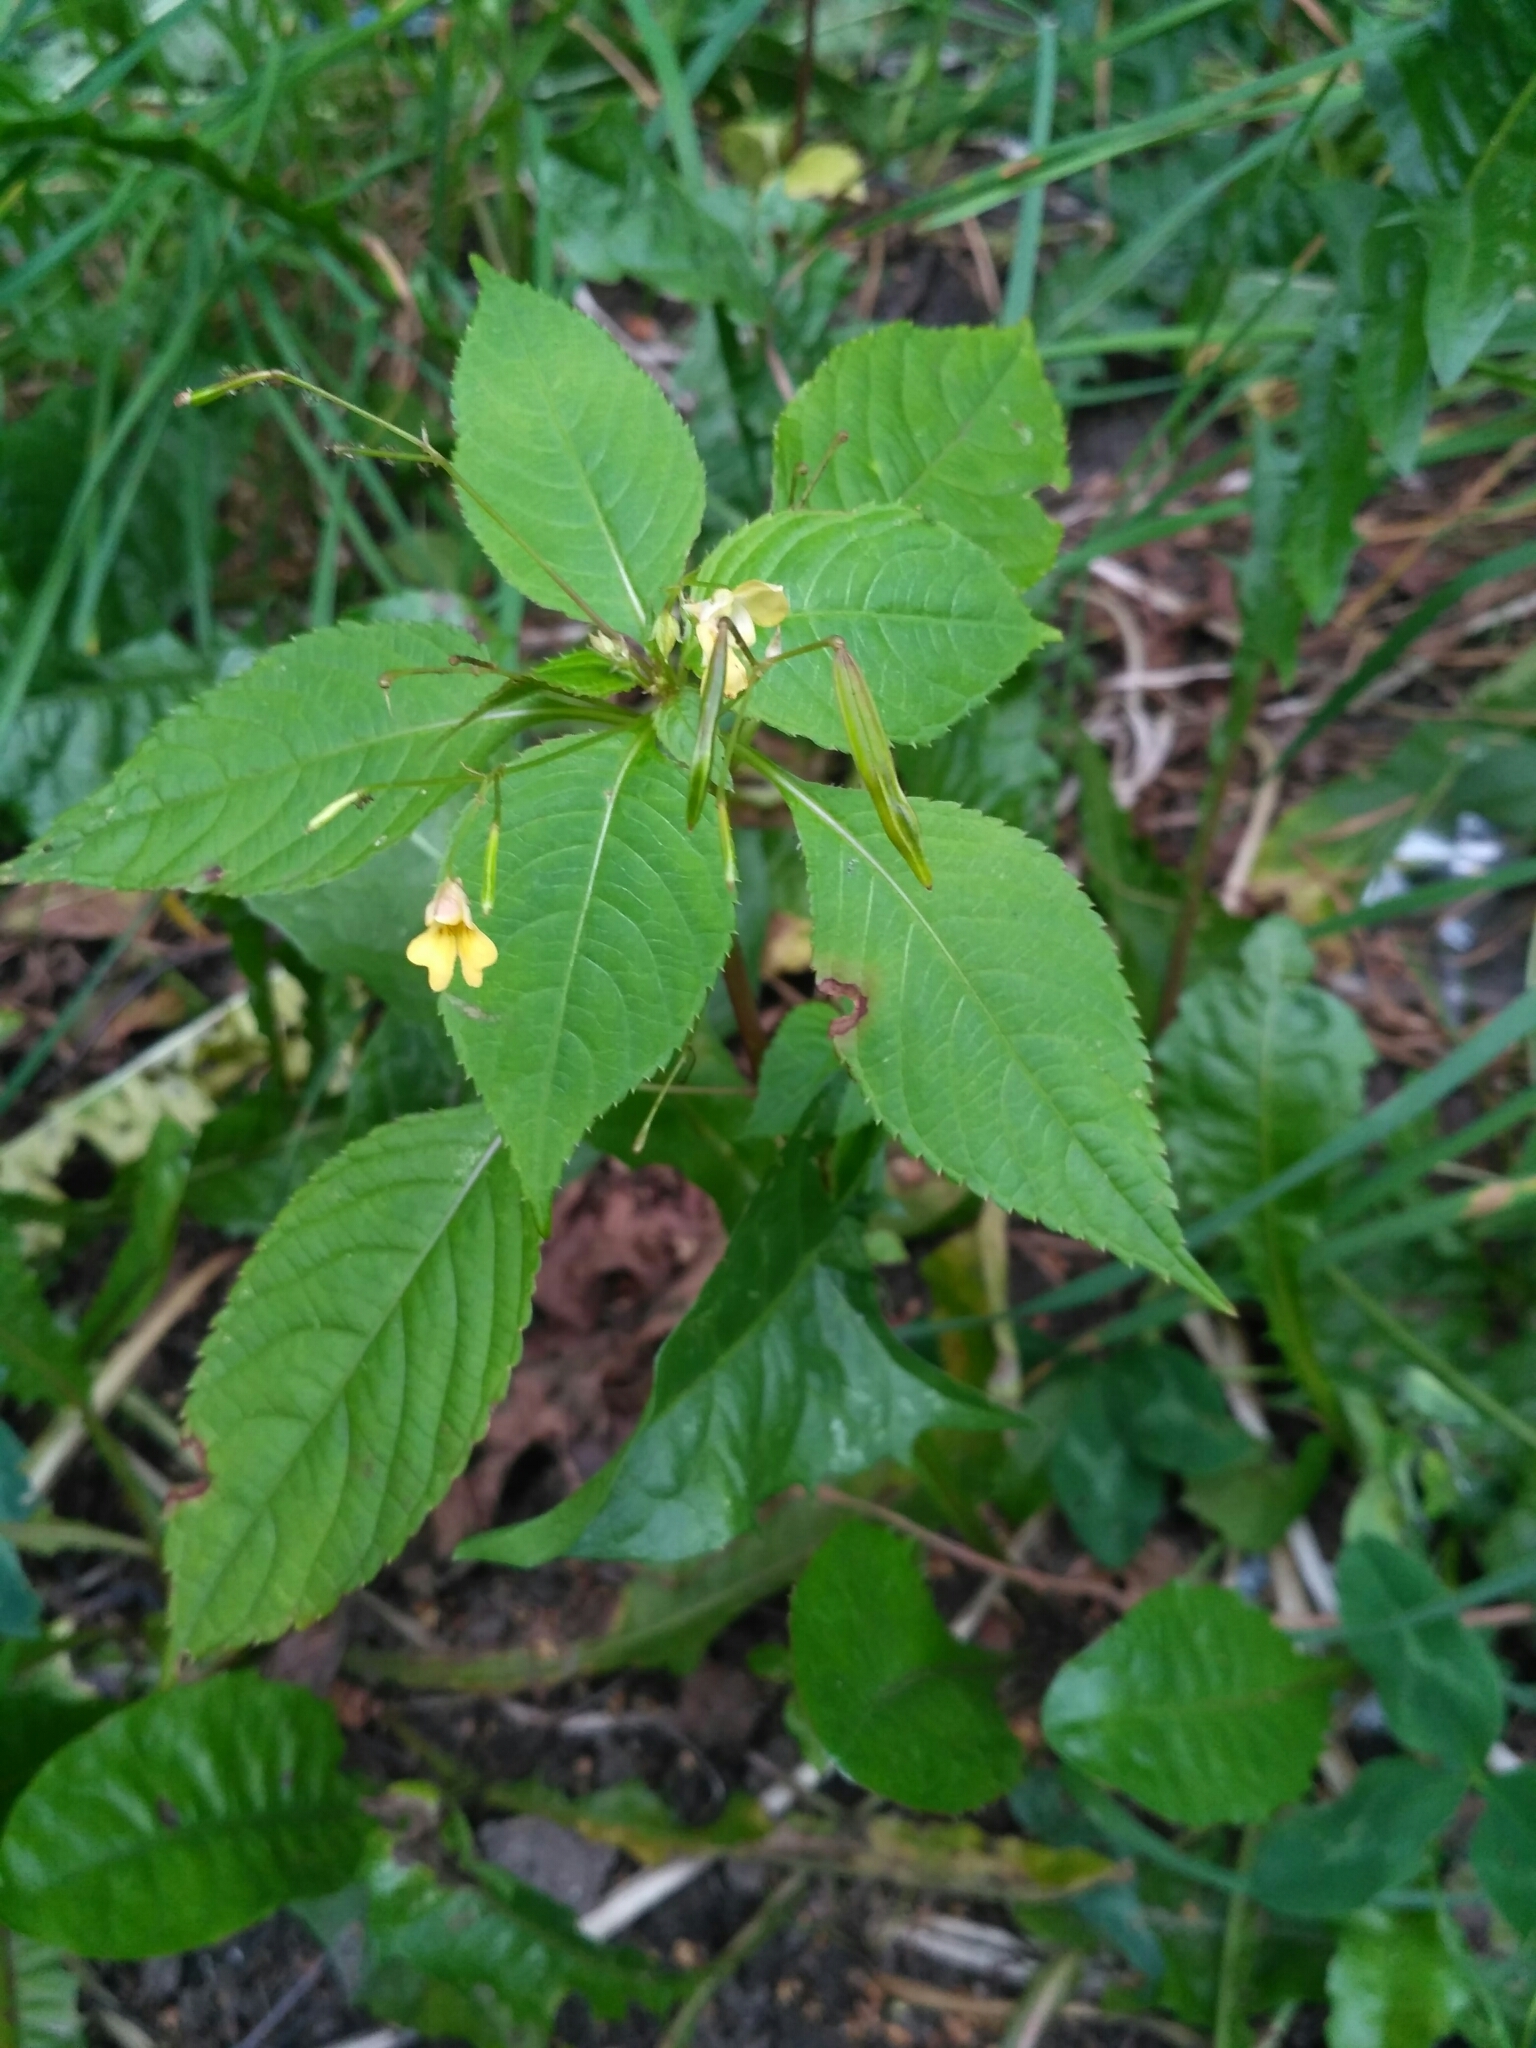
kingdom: Plantae
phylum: Tracheophyta
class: Magnoliopsida
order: Ericales
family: Balsaminaceae
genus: Impatiens
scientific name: Impatiens parviflora
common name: Small balsam
